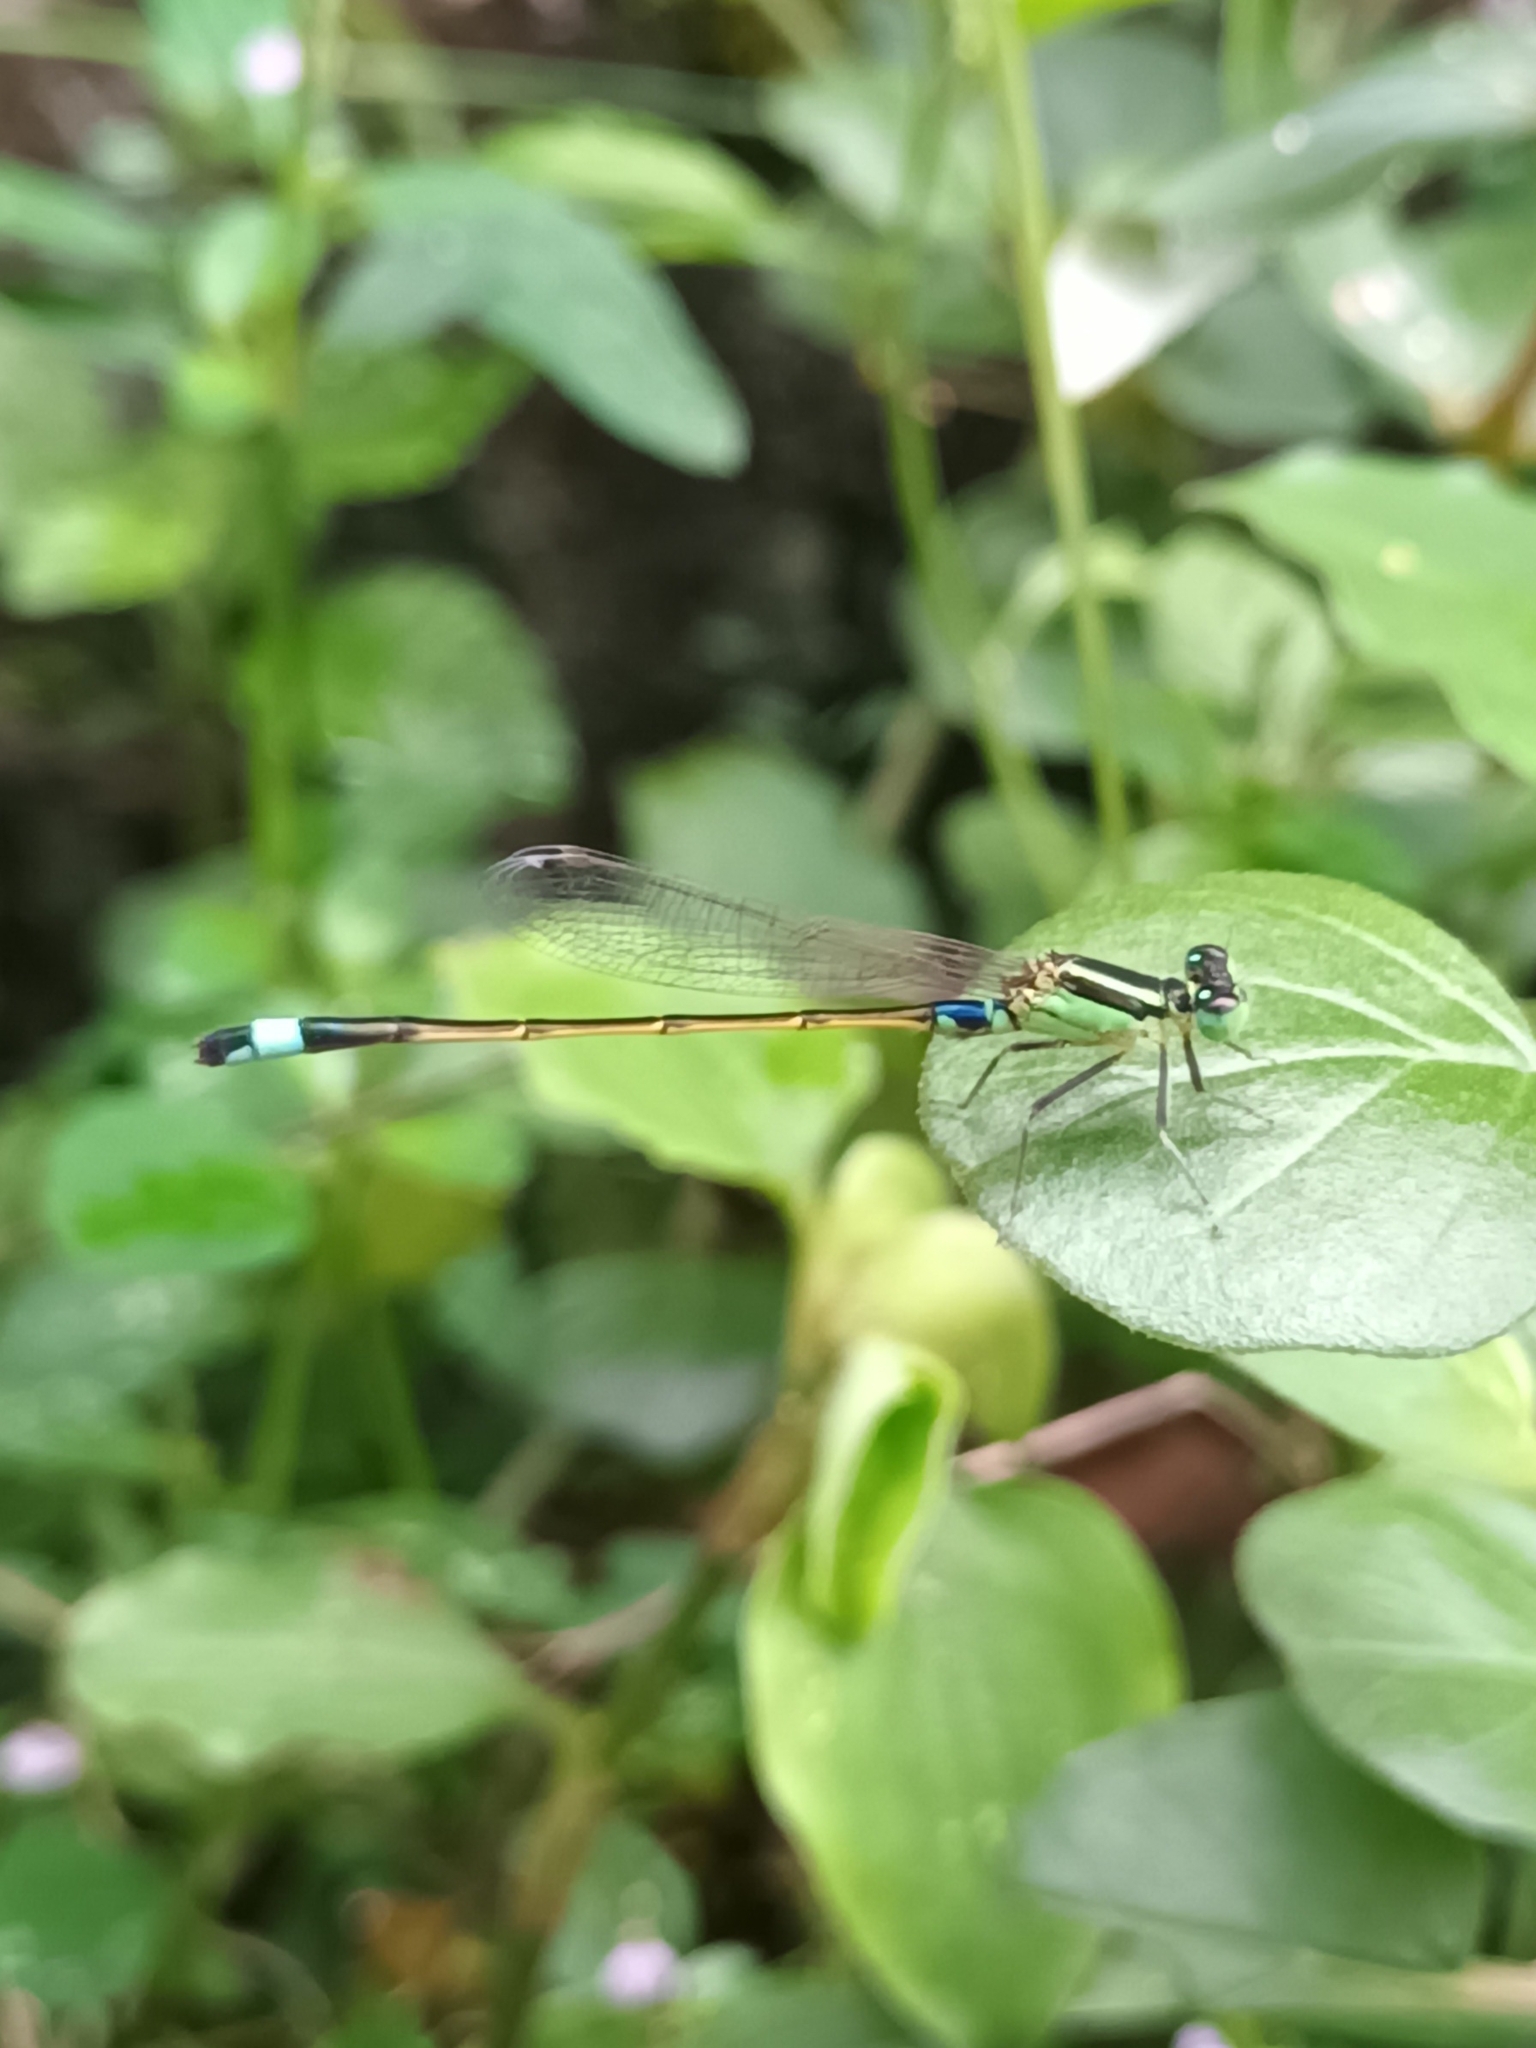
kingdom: Animalia
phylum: Arthropoda
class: Insecta
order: Odonata
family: Coenagrionidae
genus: Ischnura
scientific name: Ischnura senegalensis
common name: Tropical bluetail
